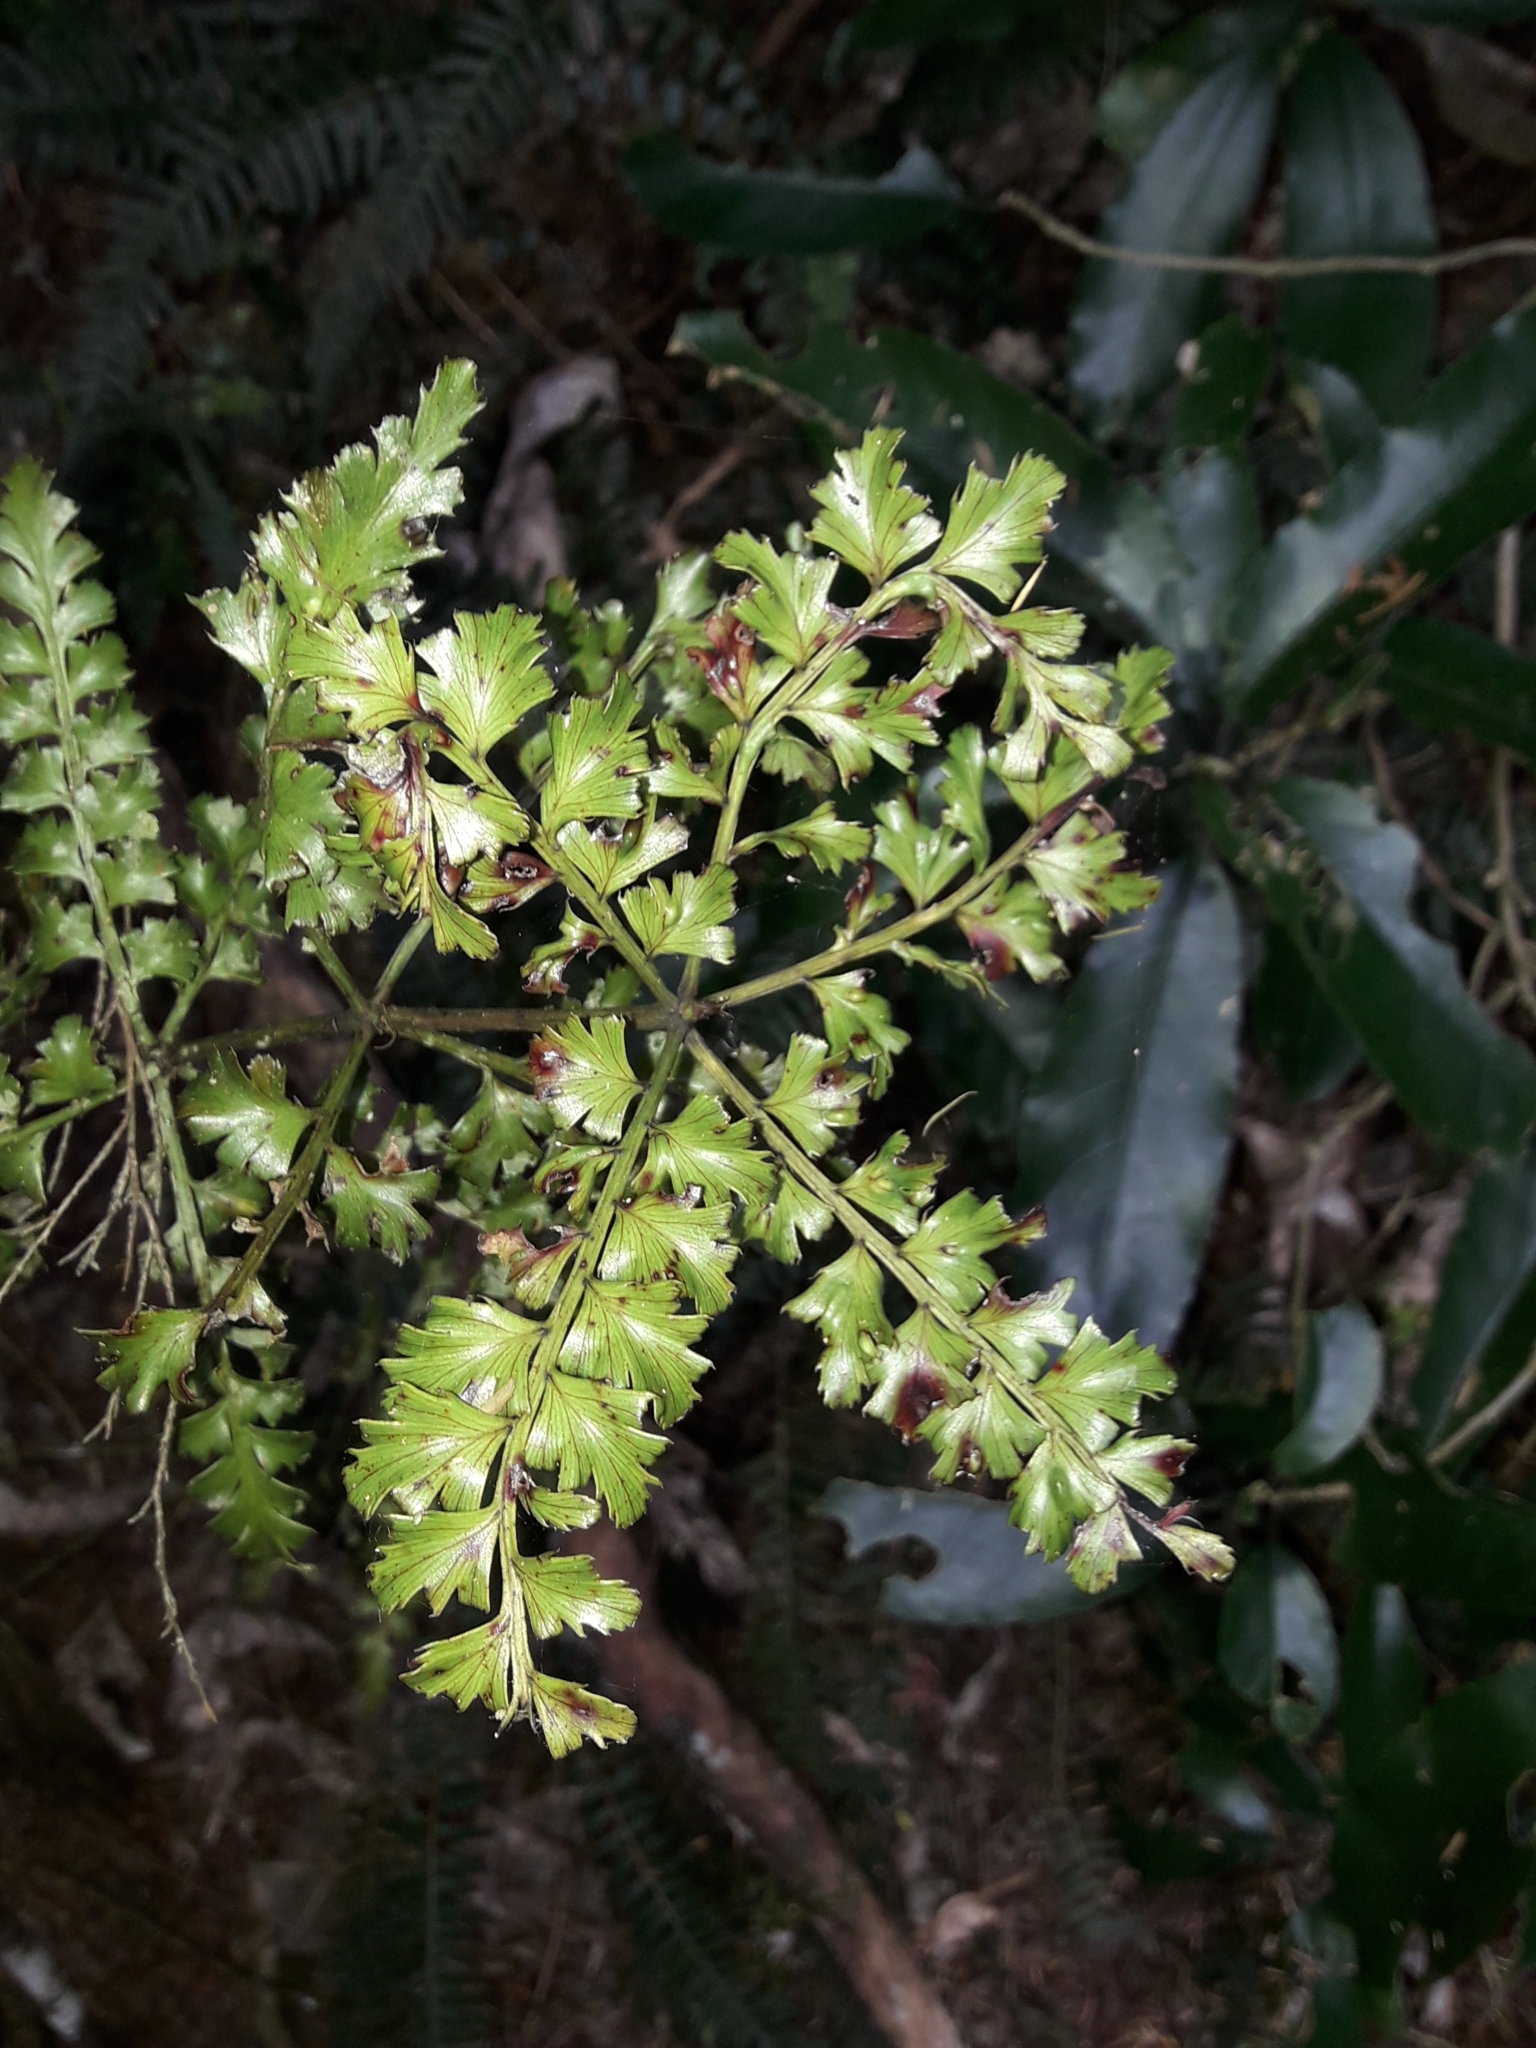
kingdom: Plantae
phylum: Tracheophyta
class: Pinopsida
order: Pinales
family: Phyllocladaceae
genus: Phyllocladus
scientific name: Phyllocladus trichomanoides
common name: Celery pine
